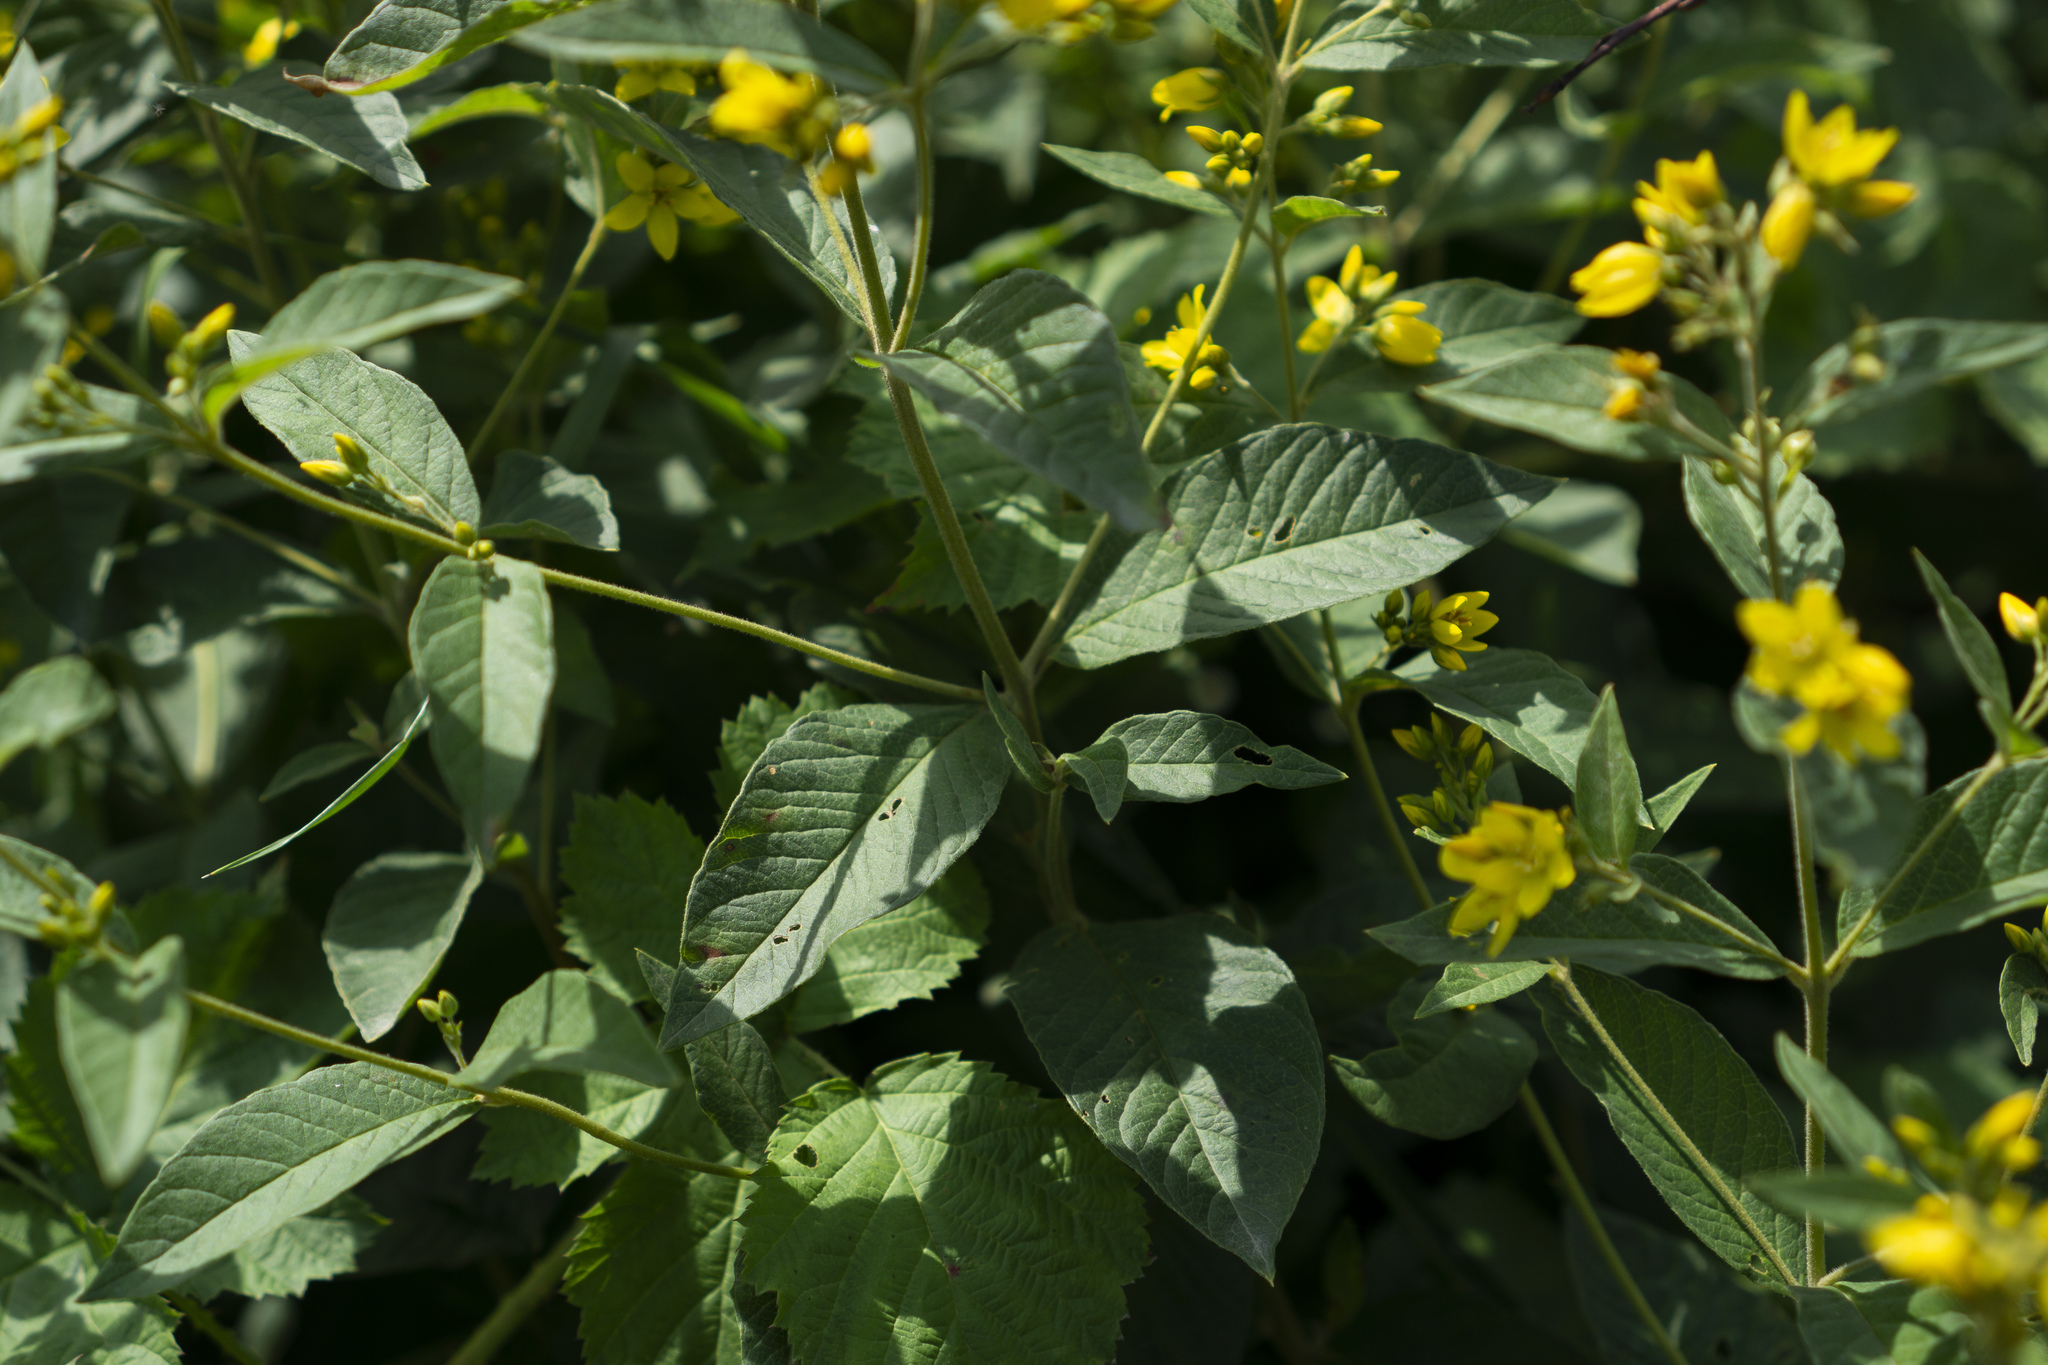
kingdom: Plantae
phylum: Tracheophyta
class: Magnoliopsida
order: Ericales
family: Primulaceae
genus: Lysimachia
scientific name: Lysimachia vulgaris
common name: Yellow loosestrife
